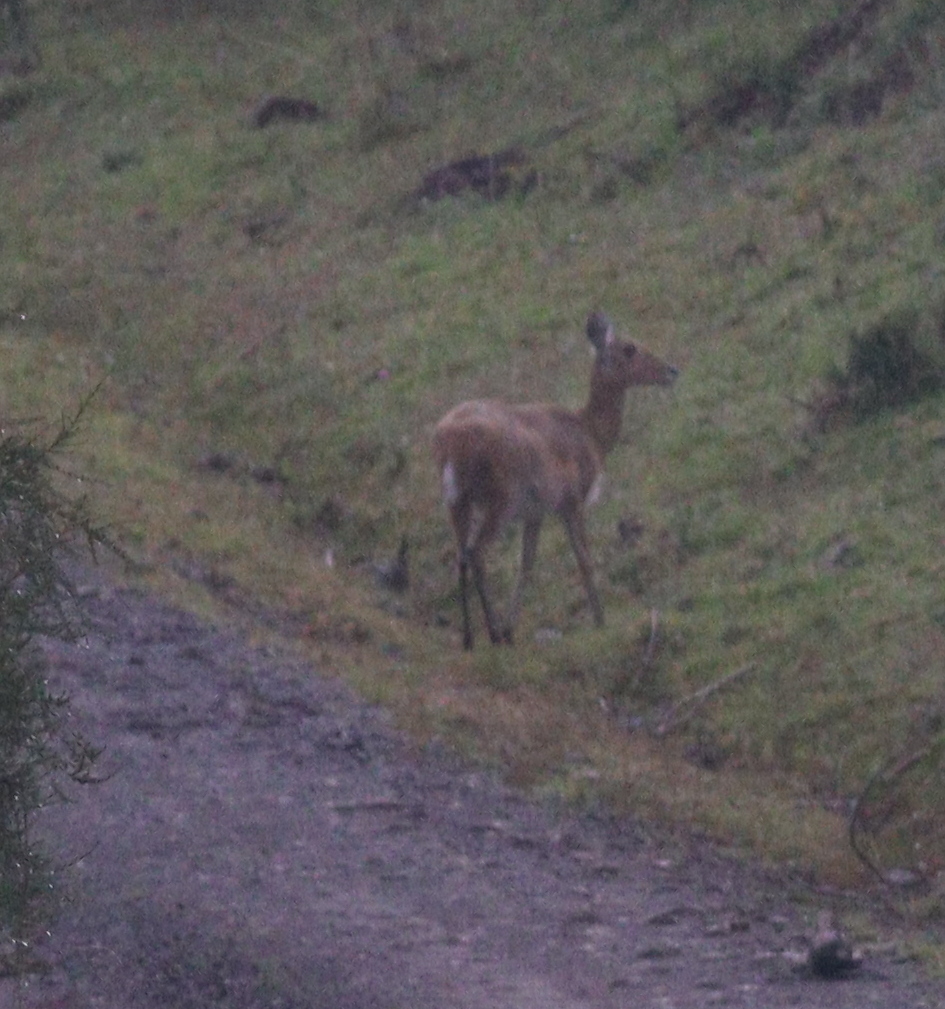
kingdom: Animalia
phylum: Chordata
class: Mammalia
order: Artiodactyla
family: Bovidae
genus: Redunca
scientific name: Redunca redunca
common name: Common reedbuck
